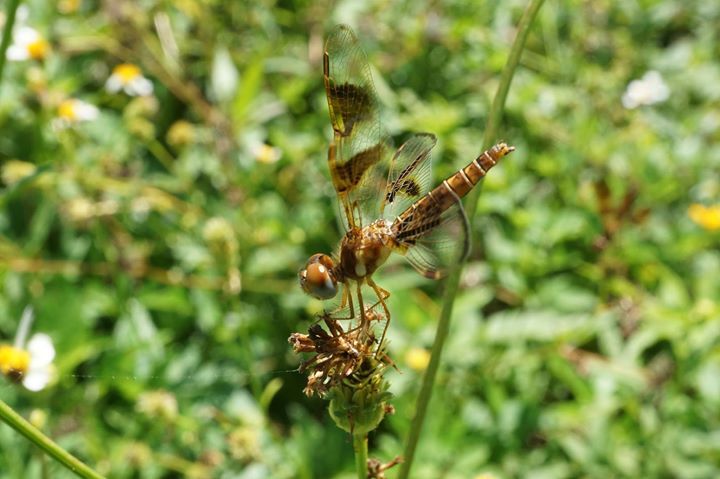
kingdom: Animalia
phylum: Arthropoda
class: Insecta
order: Odonata
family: Libellulidae
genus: Perithemis
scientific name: Perithemis tenera
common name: Eastern amberwing
